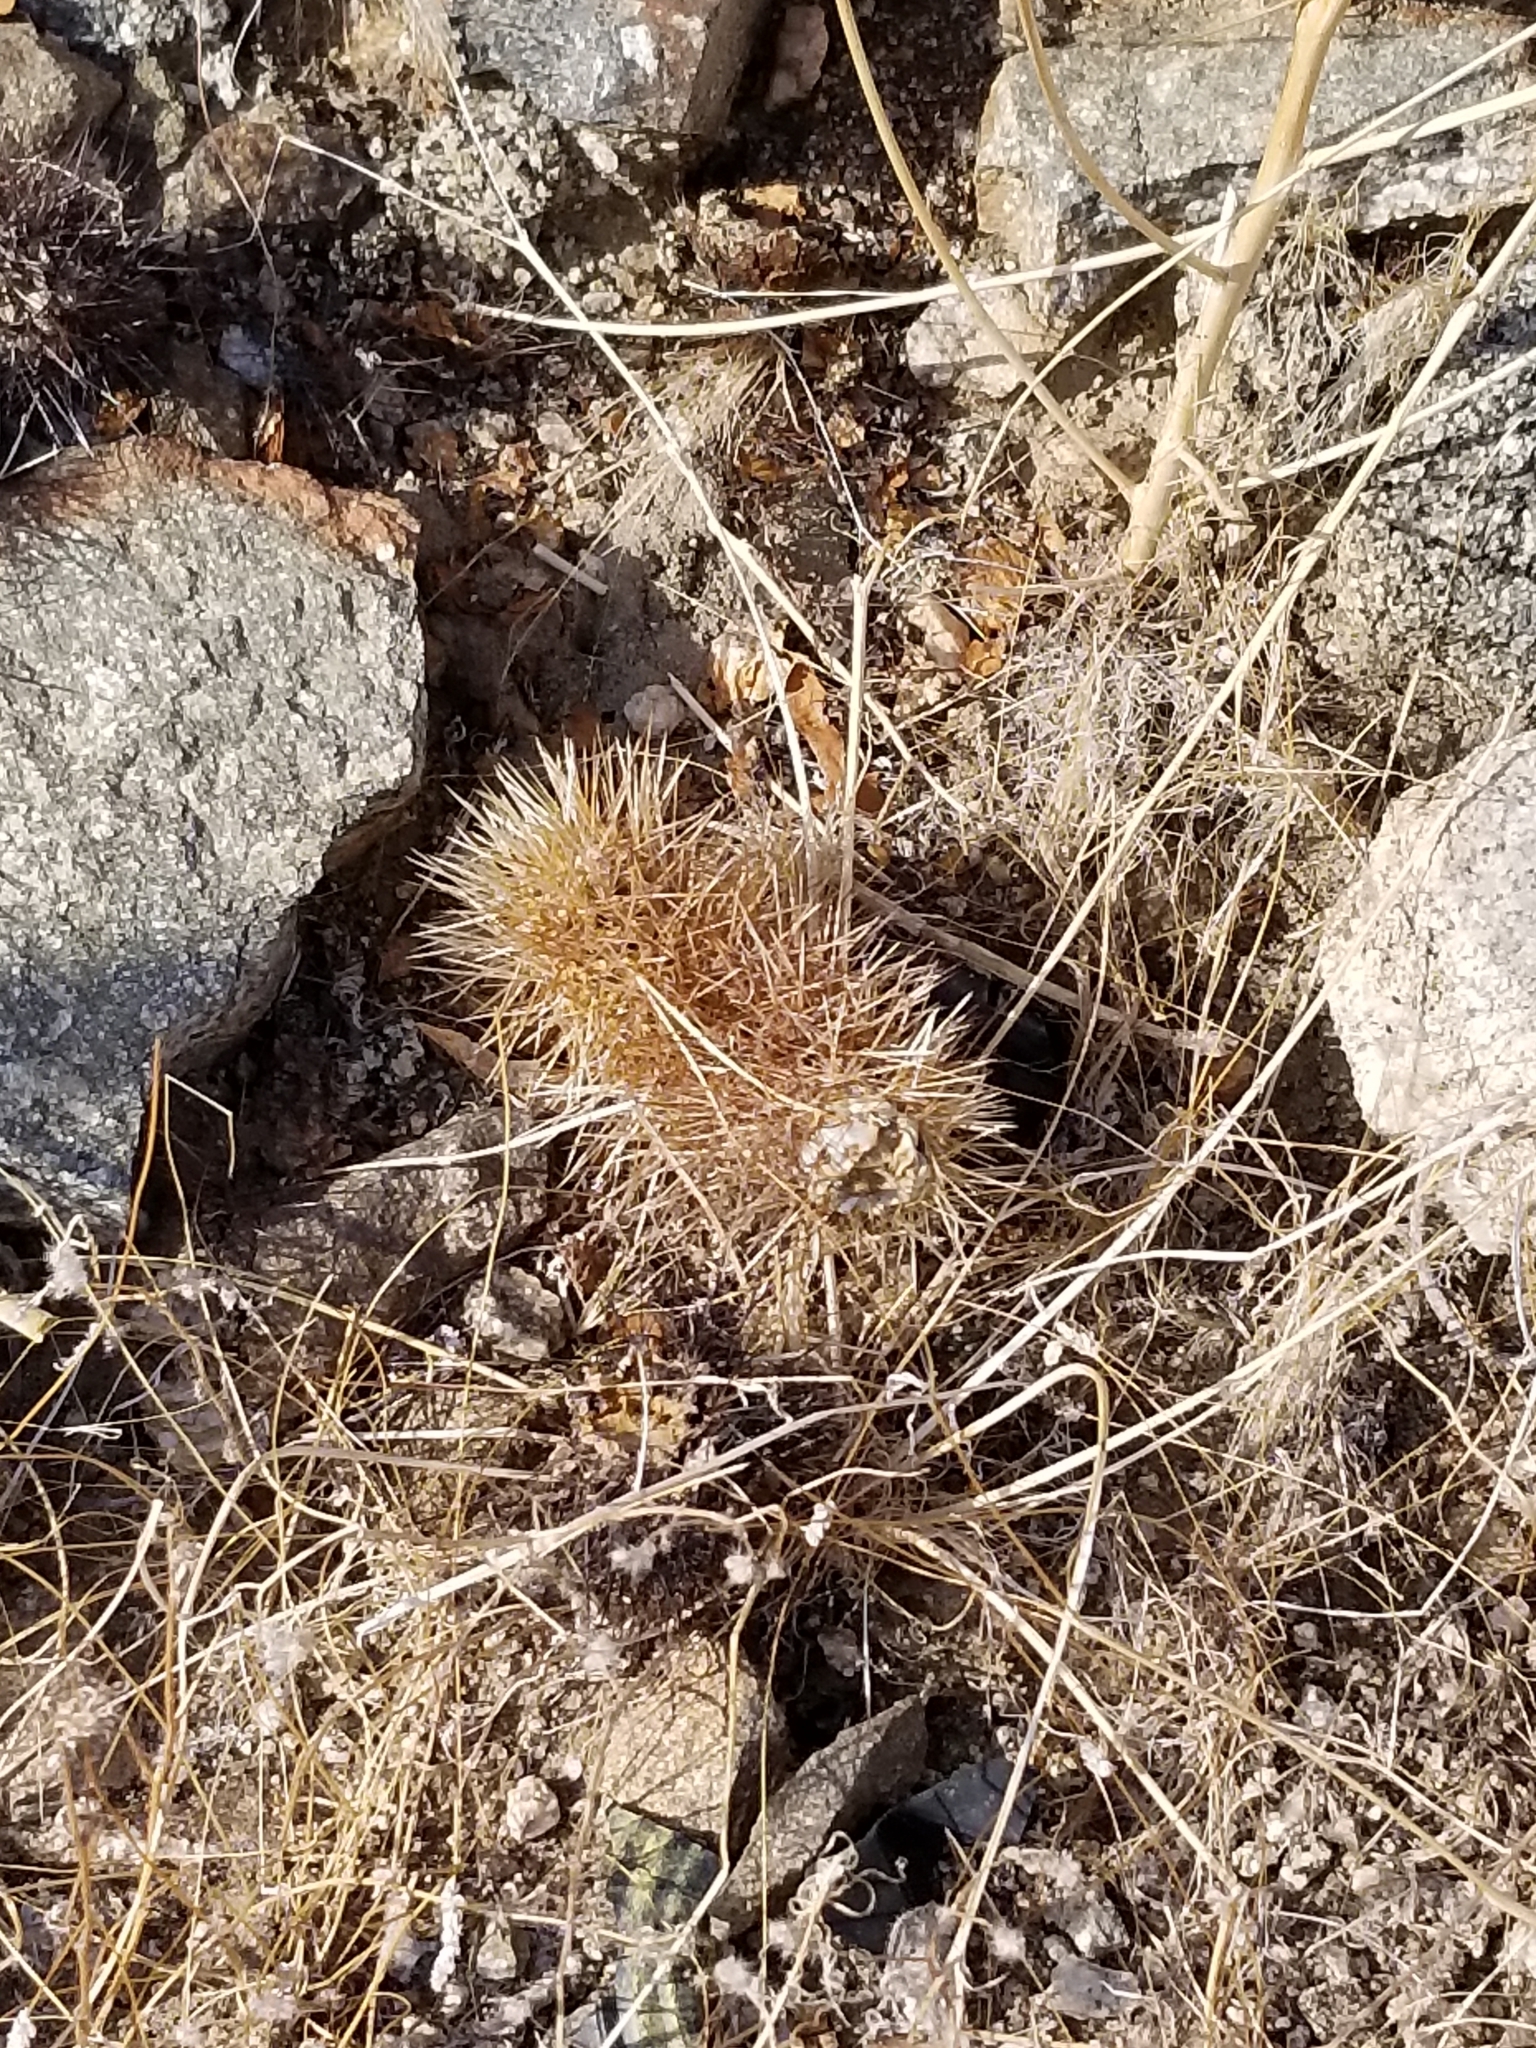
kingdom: Plantae
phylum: Tracheophyta
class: Magnoliopsida
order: Caryophyllales
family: Cactaceae
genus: Cylindropuntia
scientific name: Cylindropuntia fosbergii
